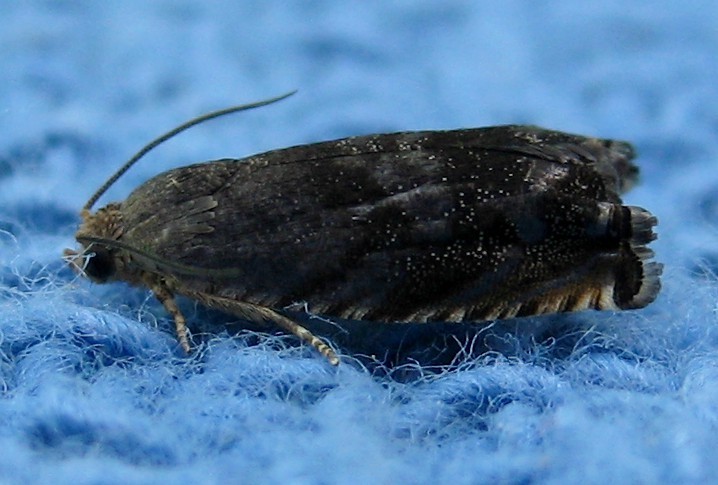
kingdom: Animalia
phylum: Arthropoda
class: Insecta
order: Lepidoptera
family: Tortricidae
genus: Cydia
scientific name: Cydia caryana
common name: Hickory shuckworm moth
